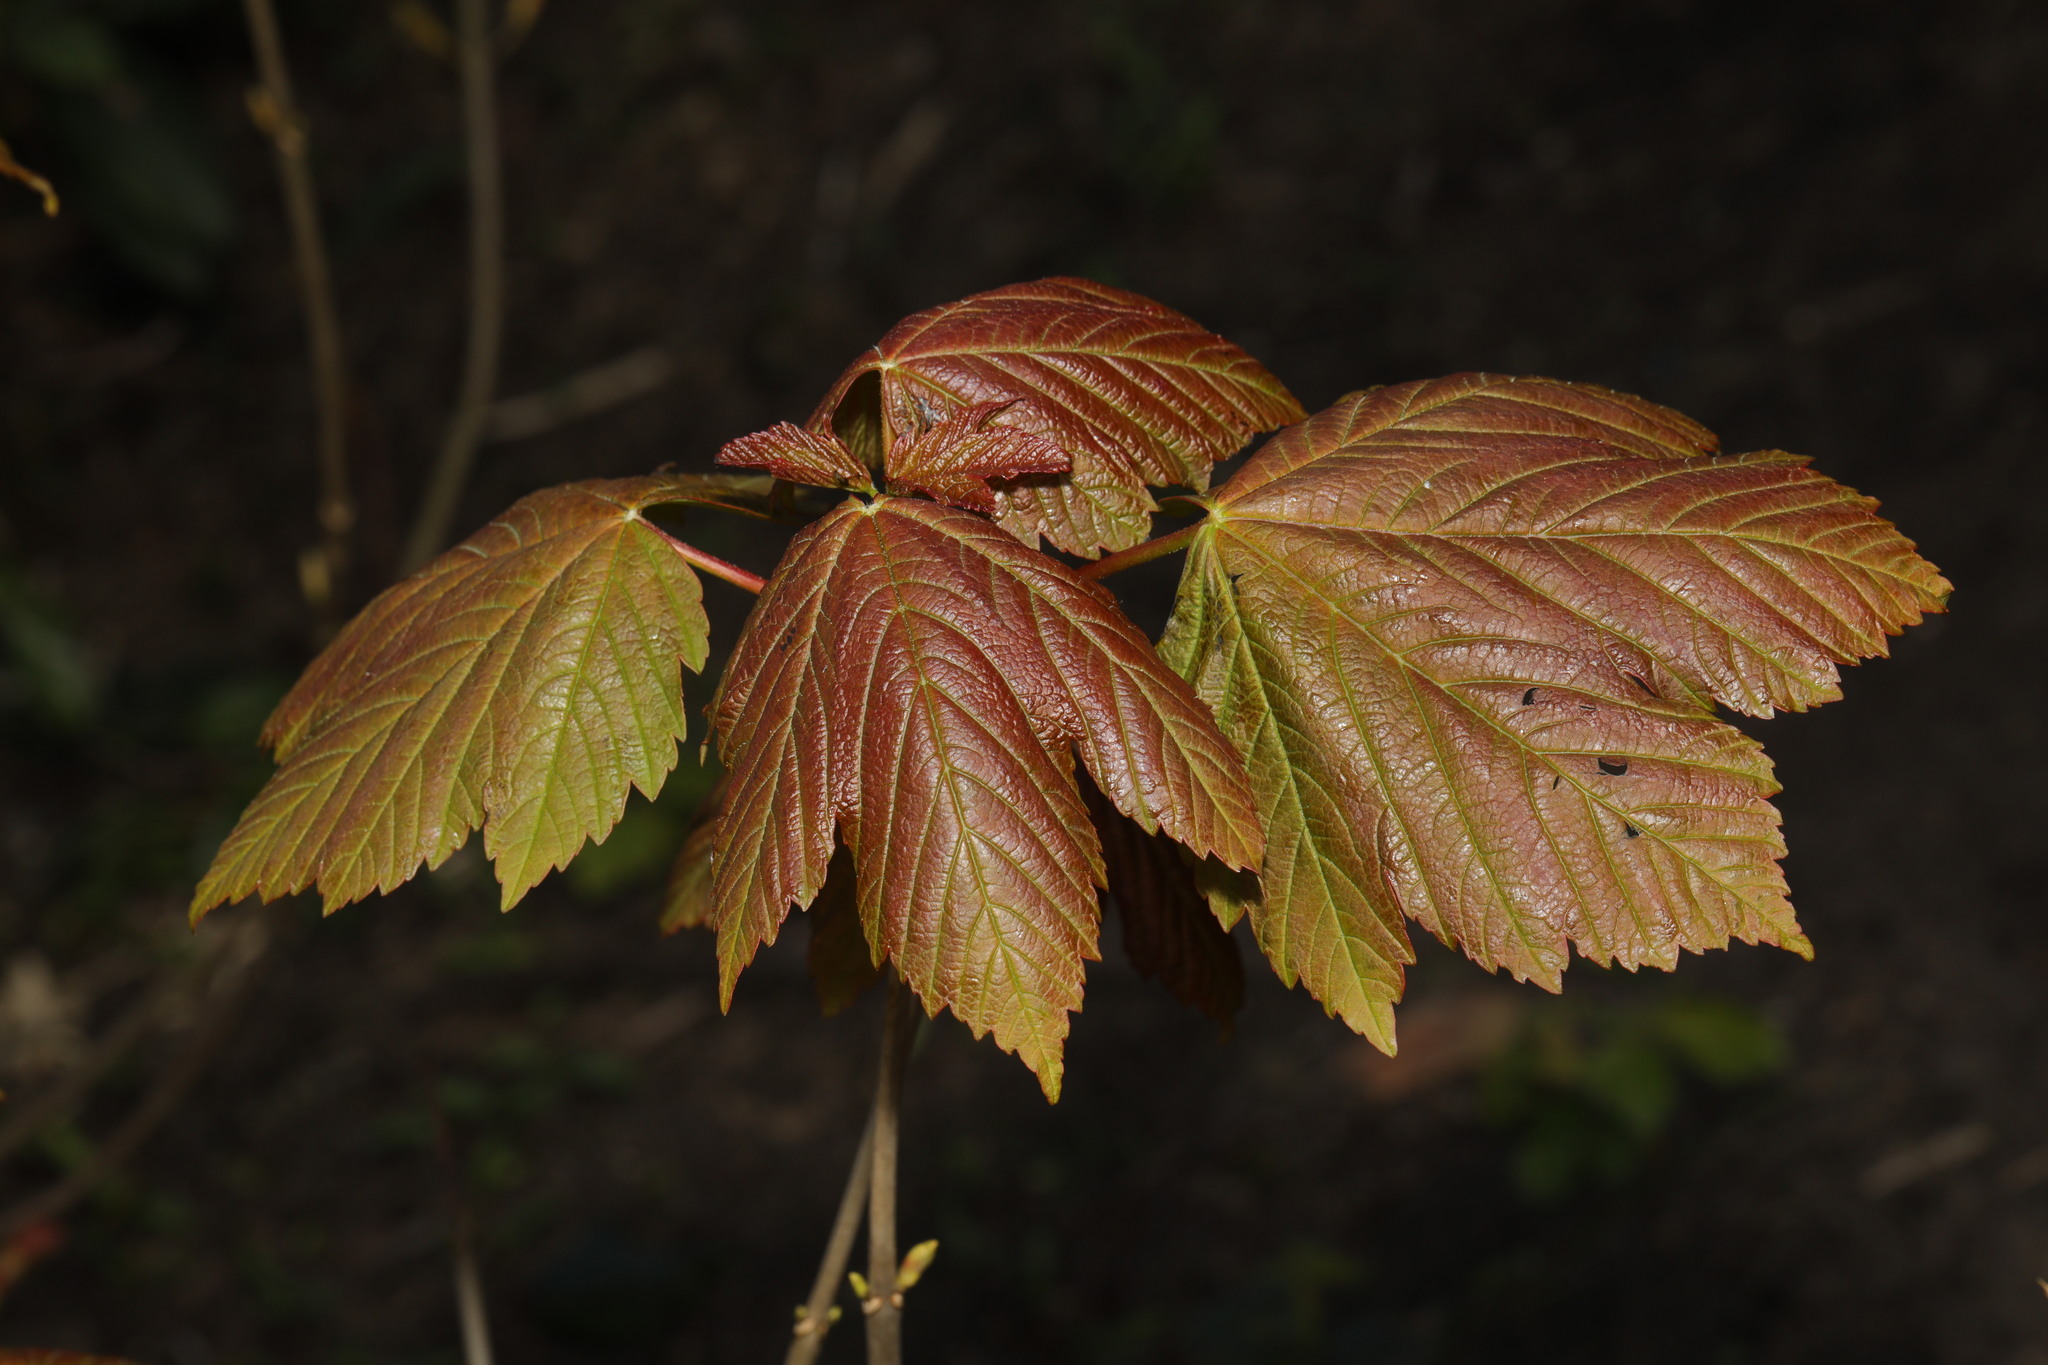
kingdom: Plantae
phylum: Tracheophyta
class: Magnoliopsida
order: Sapindales
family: Sapindaceae
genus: Acer
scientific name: Acer pseudoplatanus
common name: Sycamore
